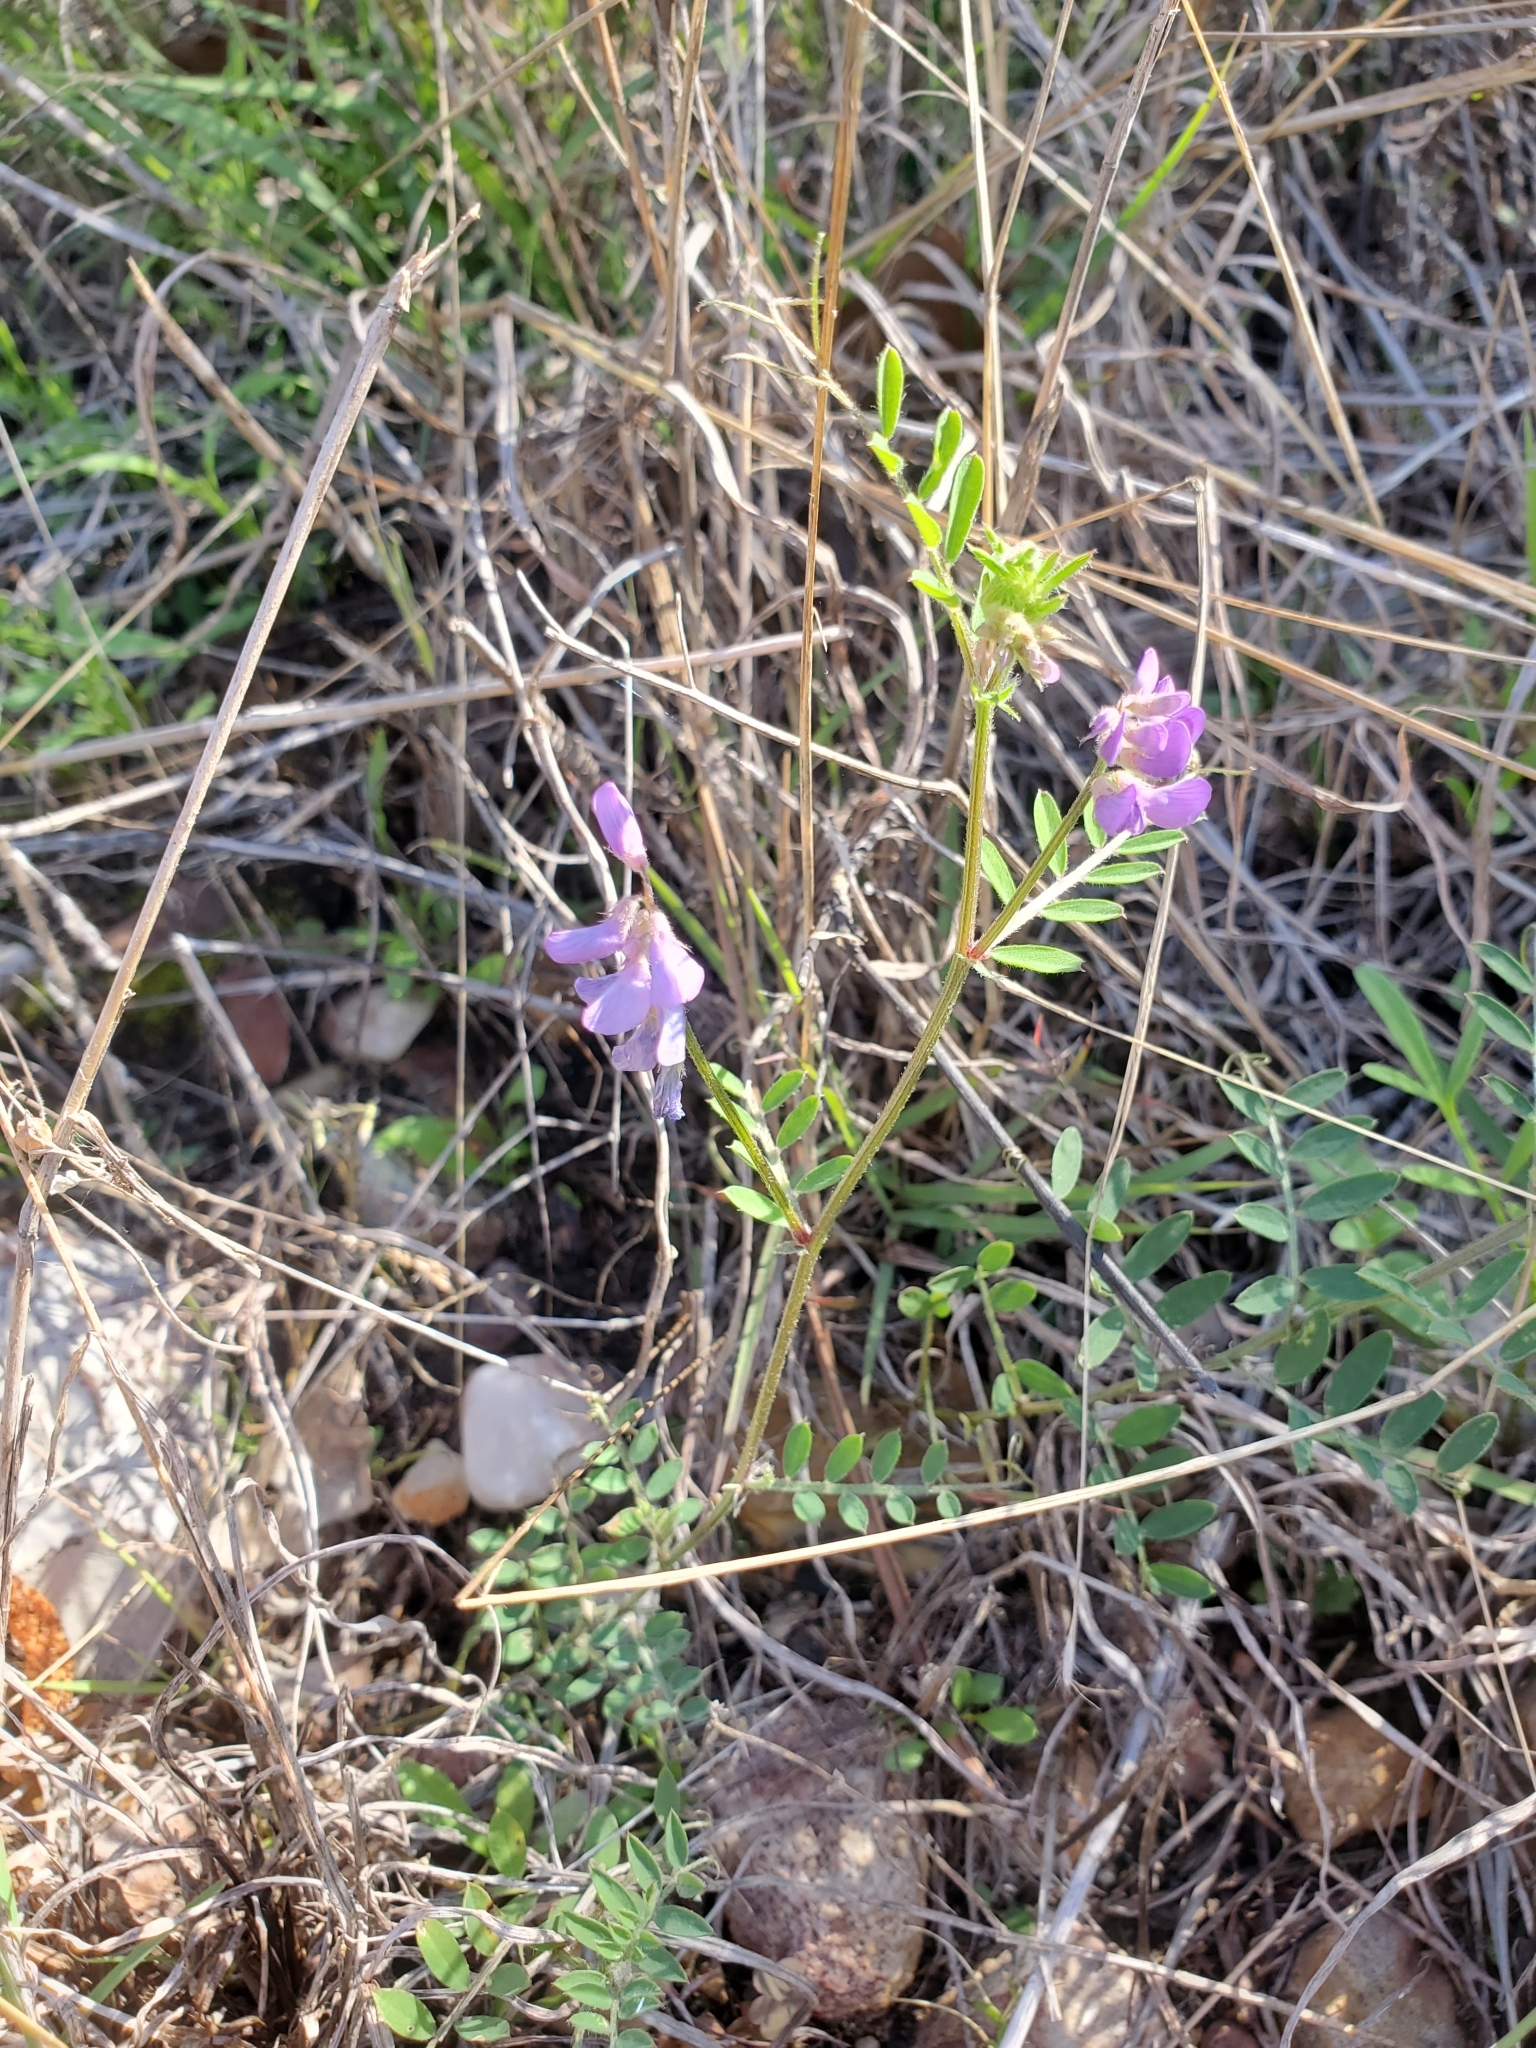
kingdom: Plantae
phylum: Tracheophyta
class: Magnoliopsida
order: Fabales
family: Fabaceae
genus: Vicia
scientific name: Vicia ludoviciana
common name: Louisiana vetch
